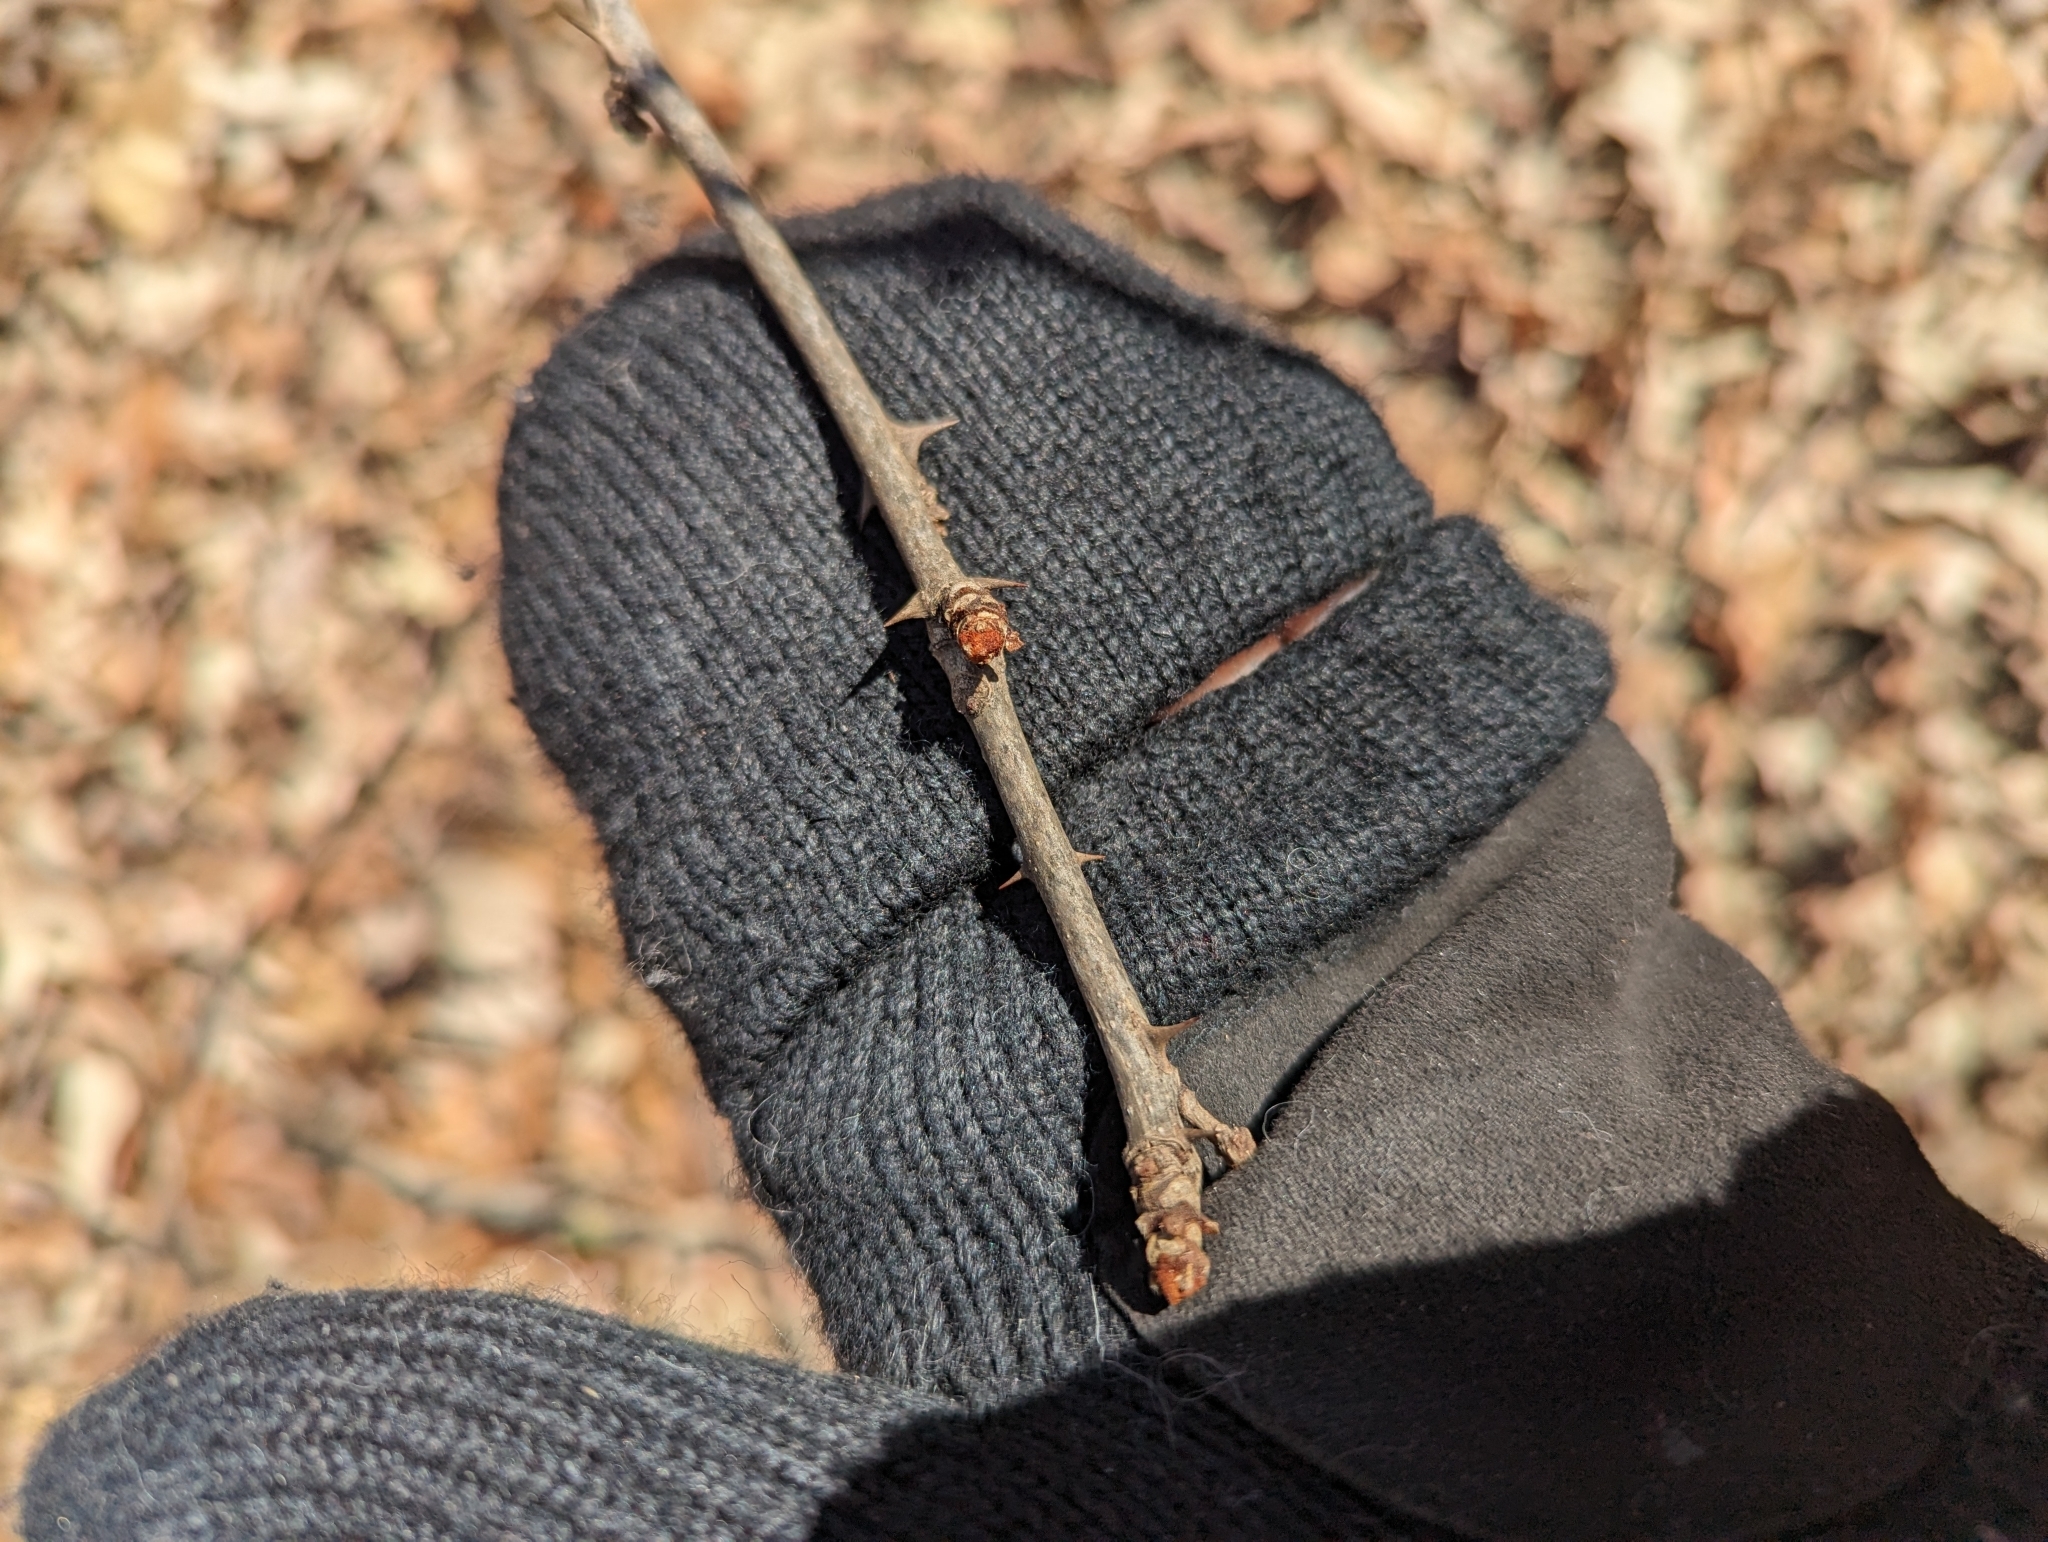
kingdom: Plantae
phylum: Tracheophyta
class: Magnoliopsida
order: Sapindales
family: Rutaceae
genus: Zanthoxylum
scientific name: Zanthoxylum americanum
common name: Northern prickly-ash
